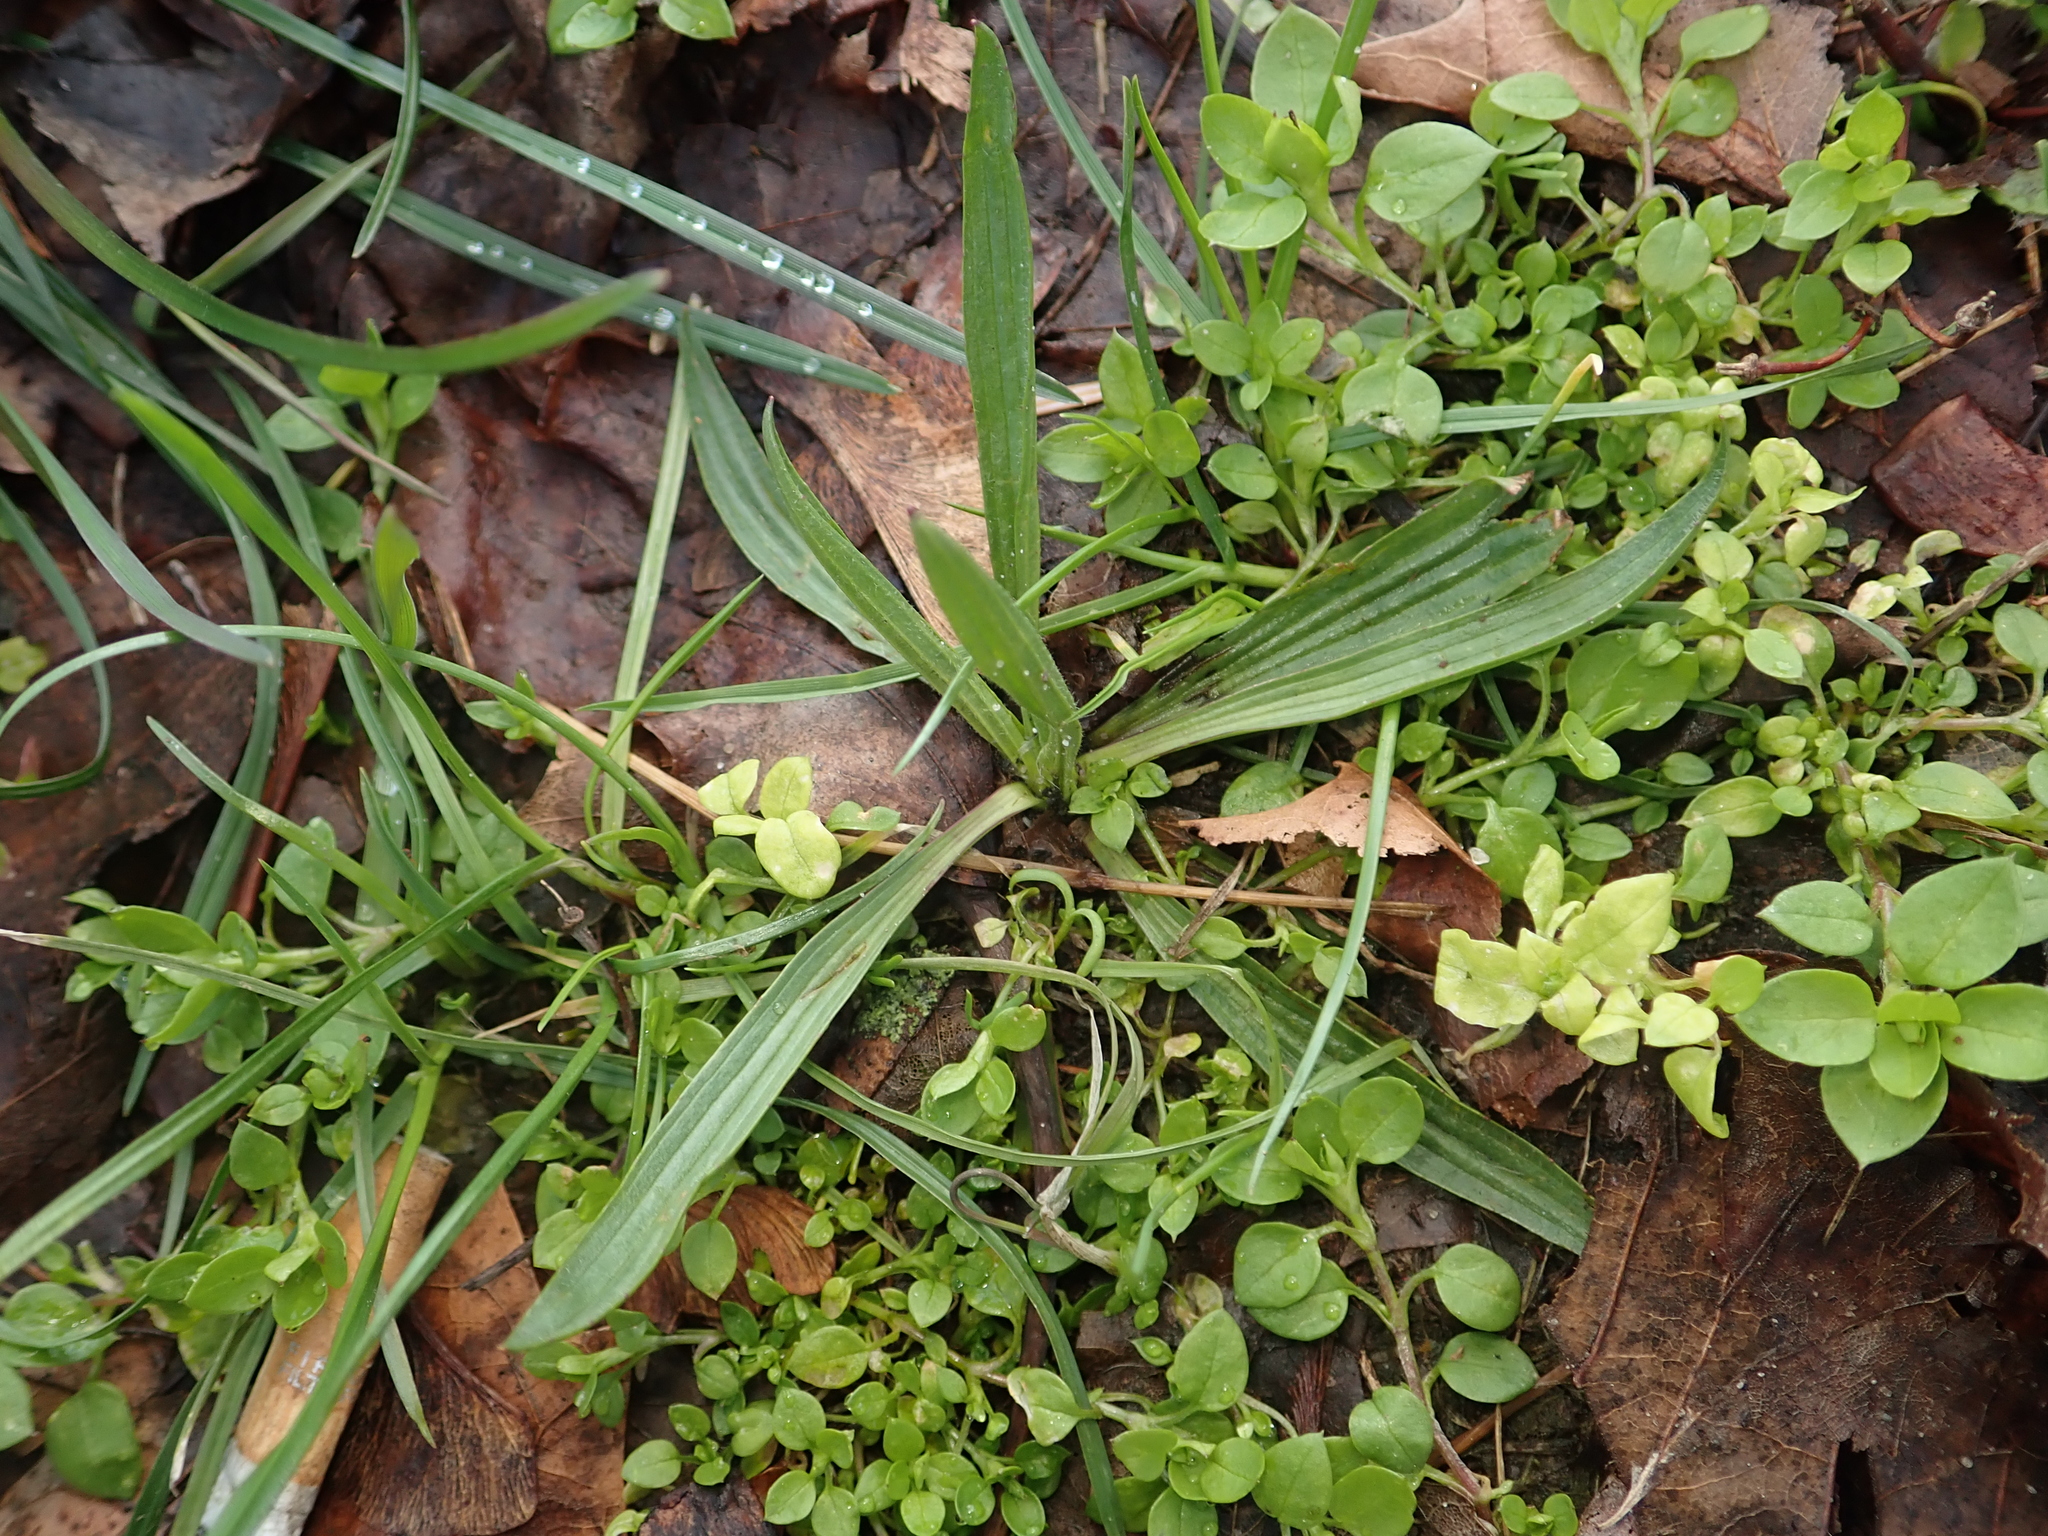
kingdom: Plantae
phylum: Tracheophyta
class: Magnoliopsida
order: Lamiales
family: Plantaginaceae
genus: Plantago
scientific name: Plantago lanceolata
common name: Ribwort plantain
